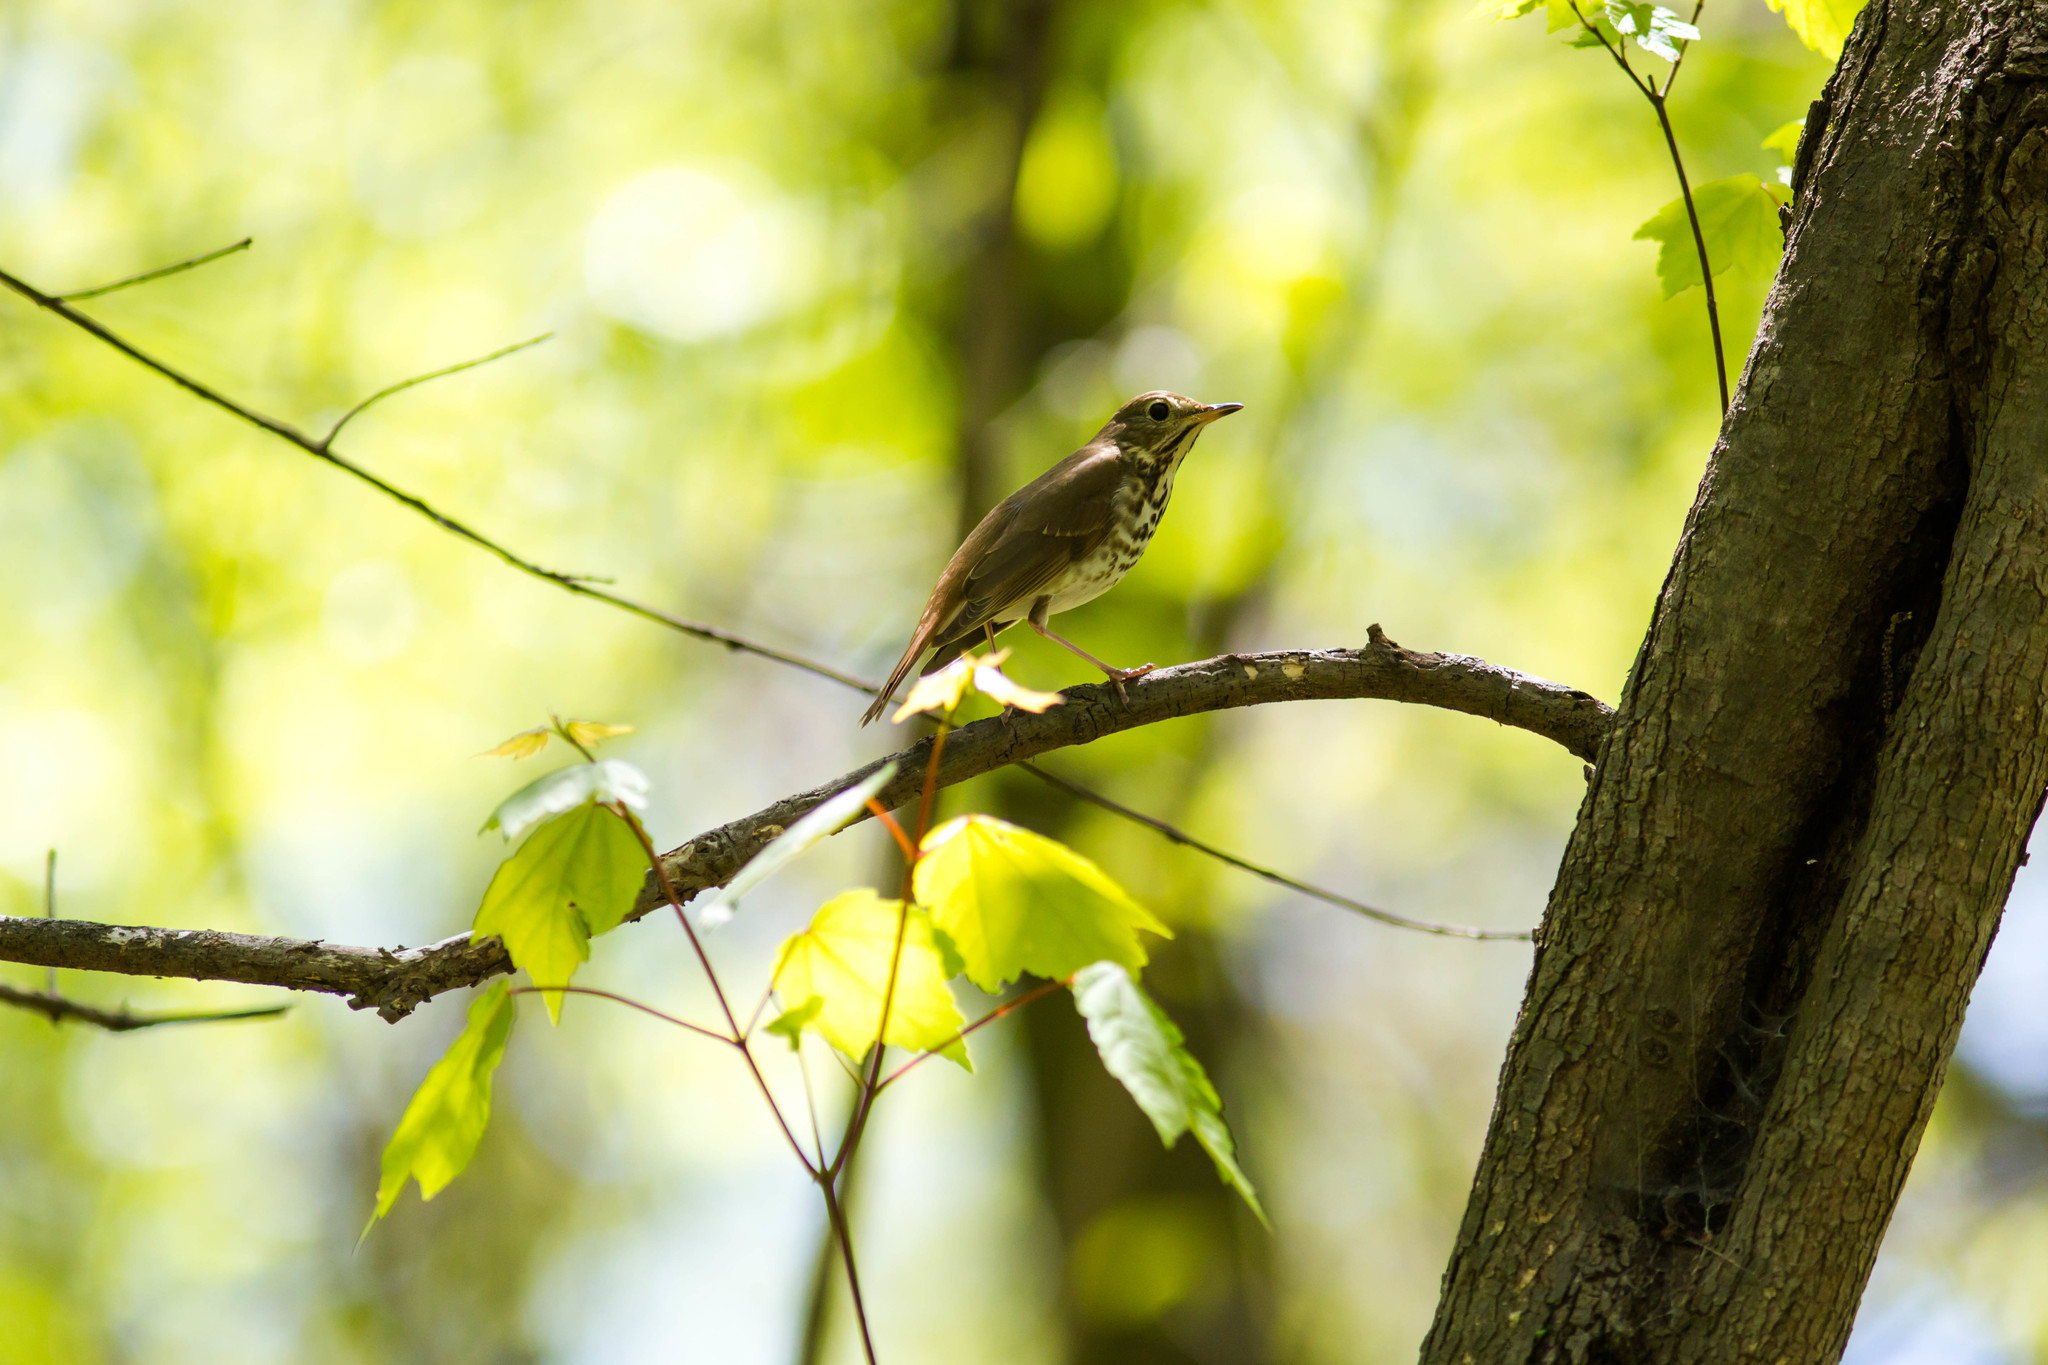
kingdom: Animalia
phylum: Chordata
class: Aves
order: Passeriformes
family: Turdidae
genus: Catharus
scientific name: Catharus guttatus
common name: Hermit thrush
